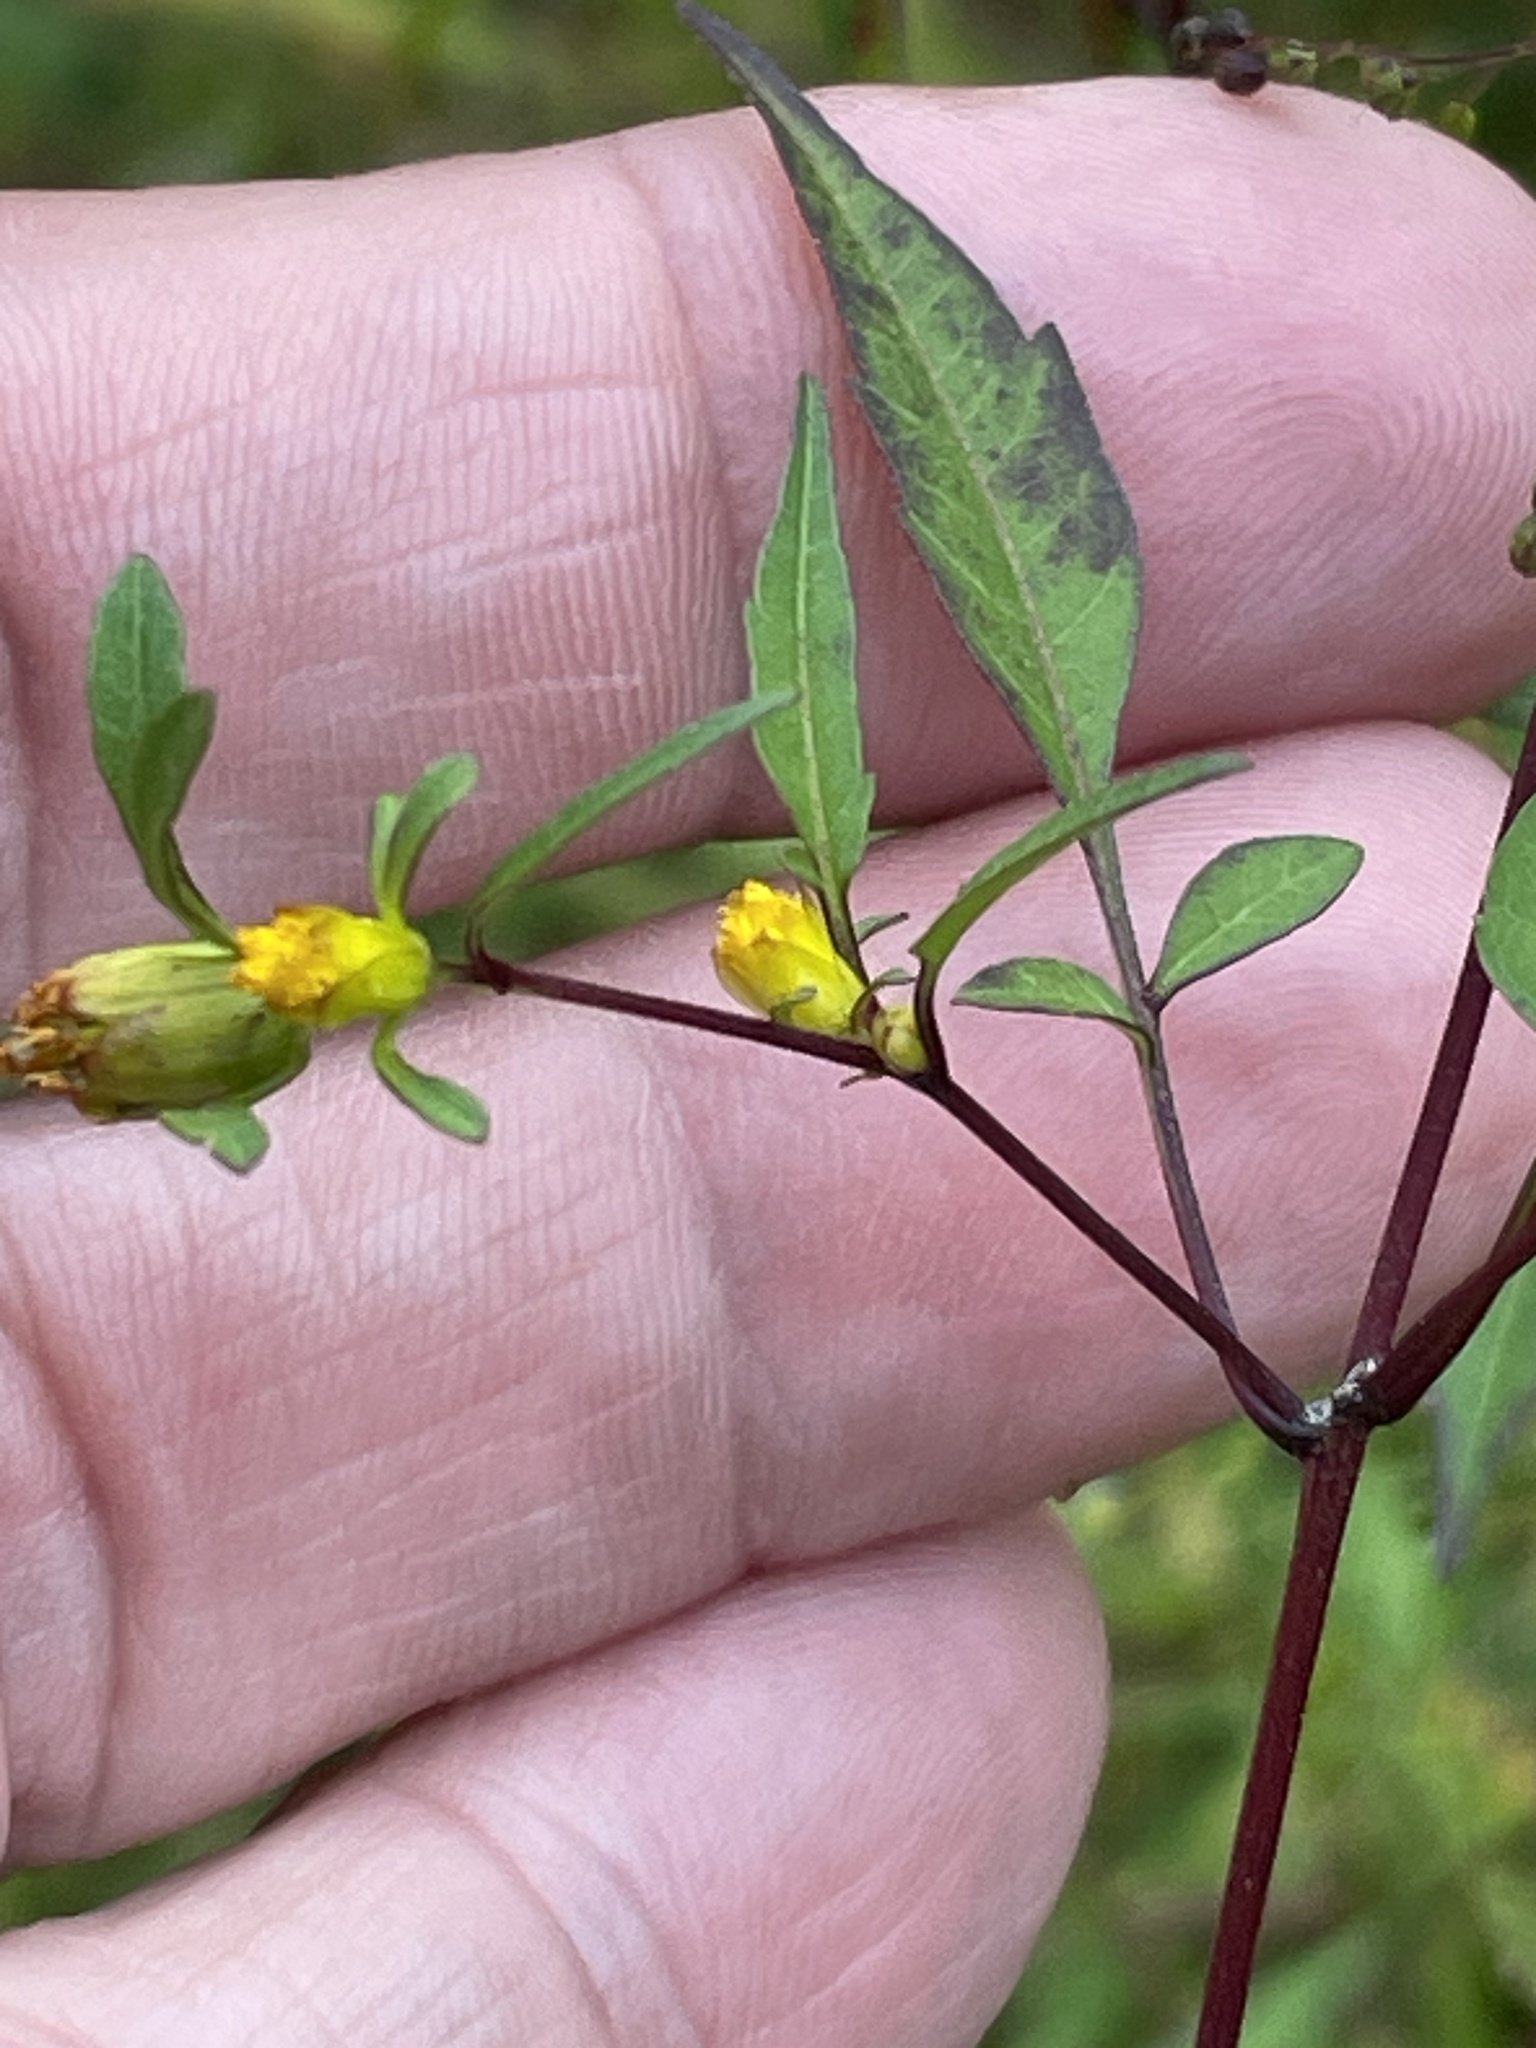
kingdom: Plantae
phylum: Tracheophyta
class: Magnoliopsida
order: Asterales
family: Asteraceae
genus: Bidens
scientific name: Bidens discoidea
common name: Discoide beggarticks
